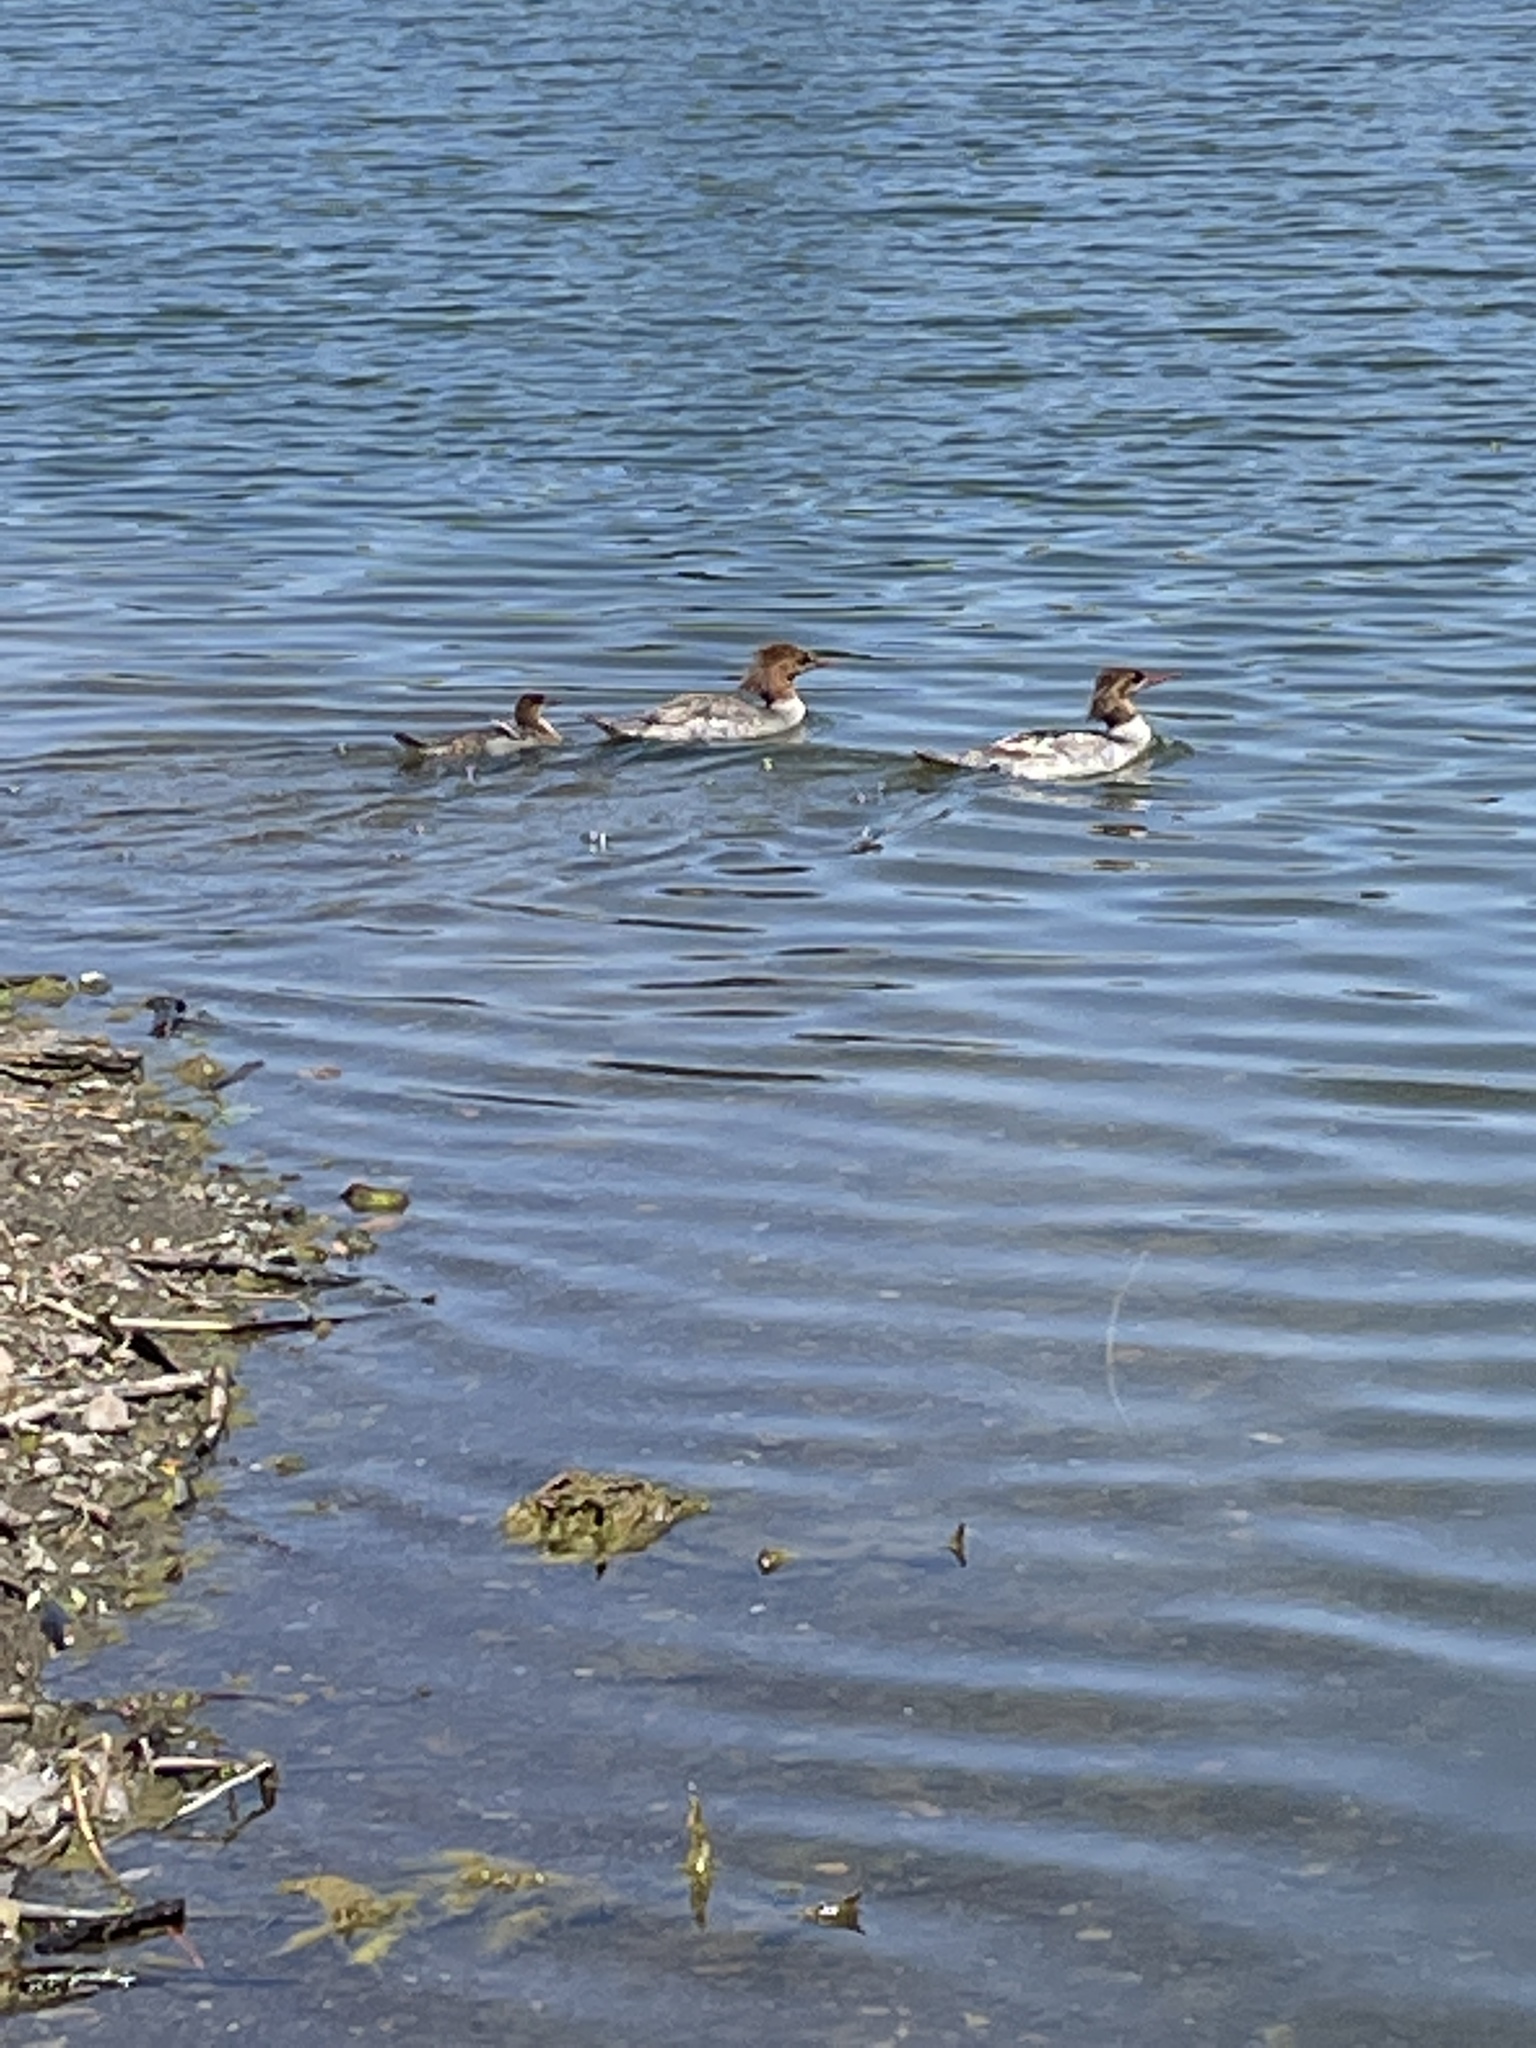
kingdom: Animalia
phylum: Chordata
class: Aves
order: Anseriformes
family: Anatidae
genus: Mergus
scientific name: Mergus merganser
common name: Common merganser
